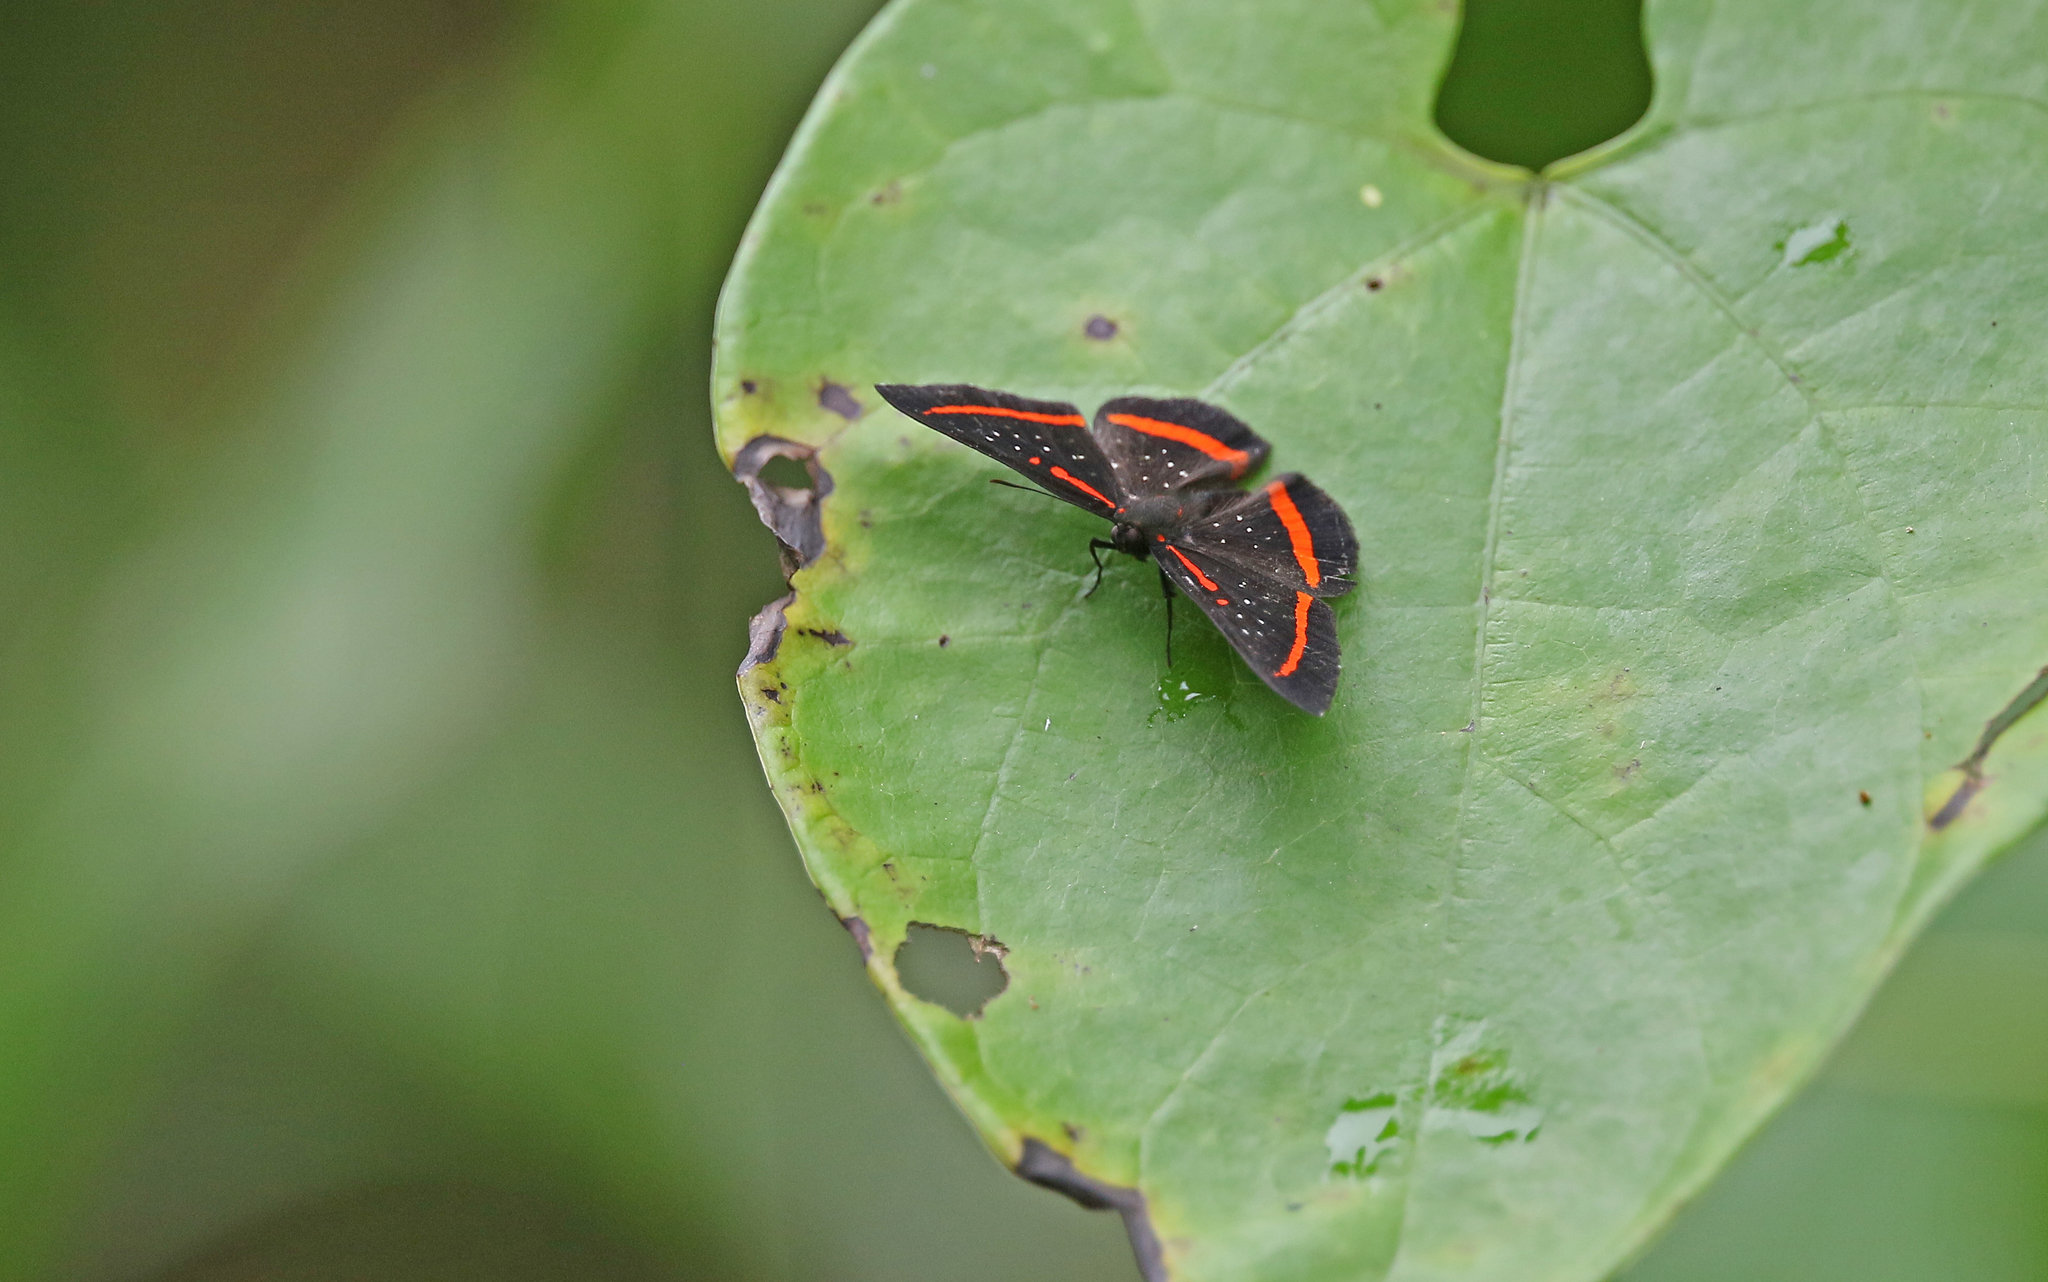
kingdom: Animalia
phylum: Arthropoda
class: Insecta
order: Lepidoptera
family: Riodinidae
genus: Amarynthis
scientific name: Amarynthis meneria
